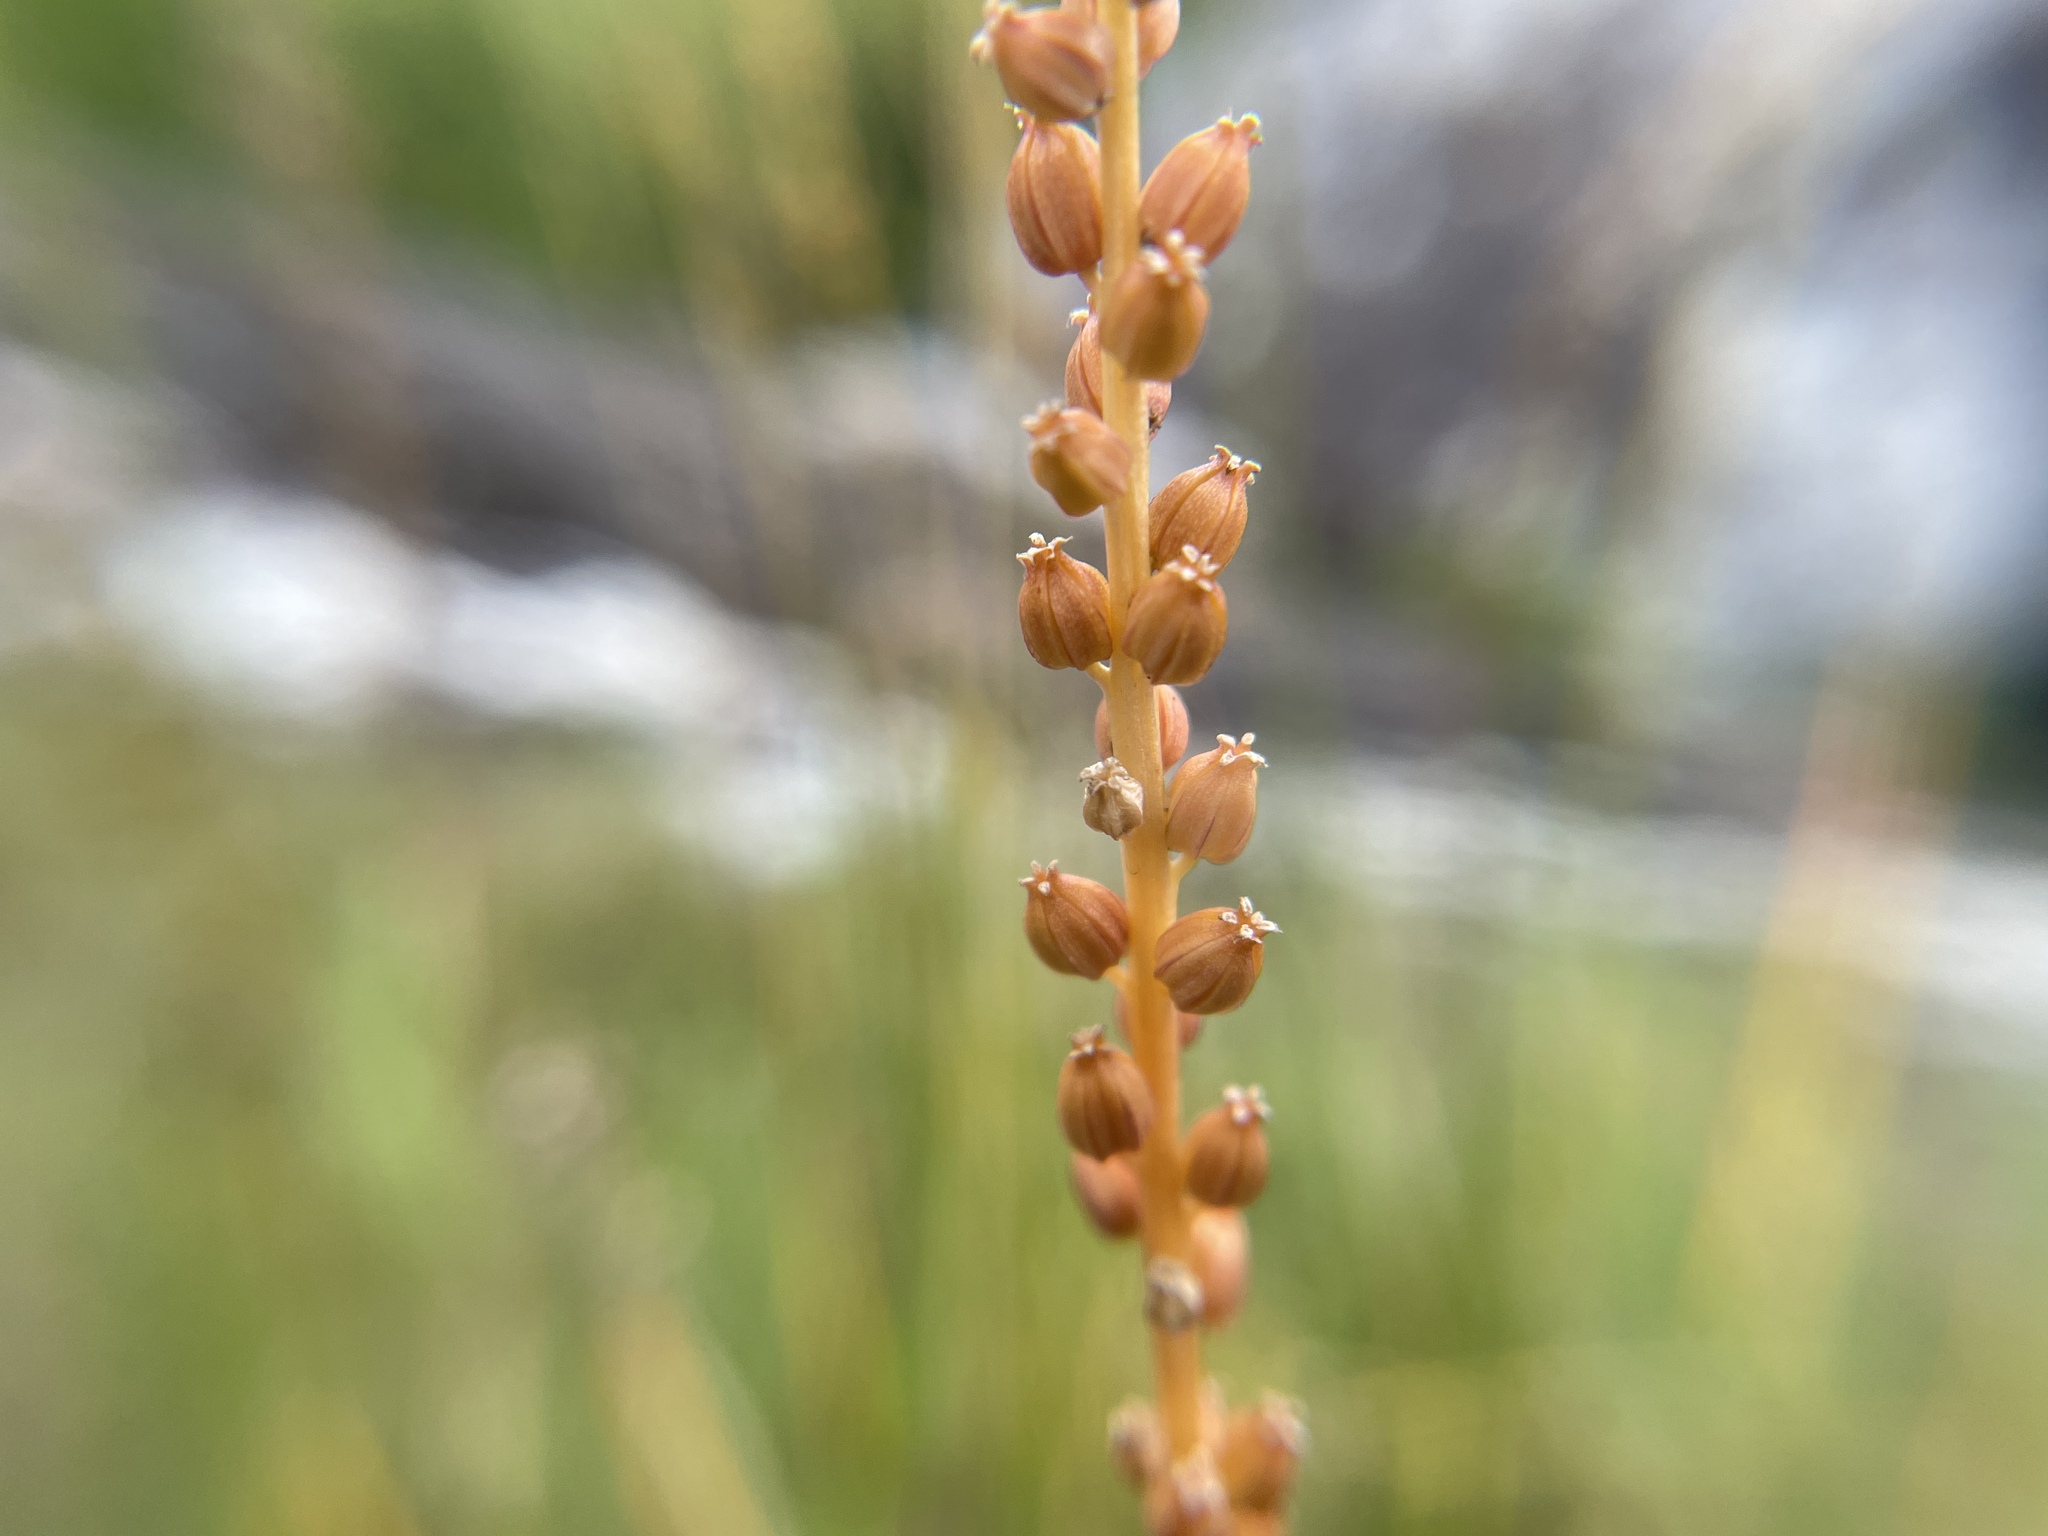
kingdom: Plantae
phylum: Tracheophyta
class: Liliopsida
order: Alismatales
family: Juncaginaceae
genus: Triglochin
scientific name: Triglochin maritima
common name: Sea arrowgrass
